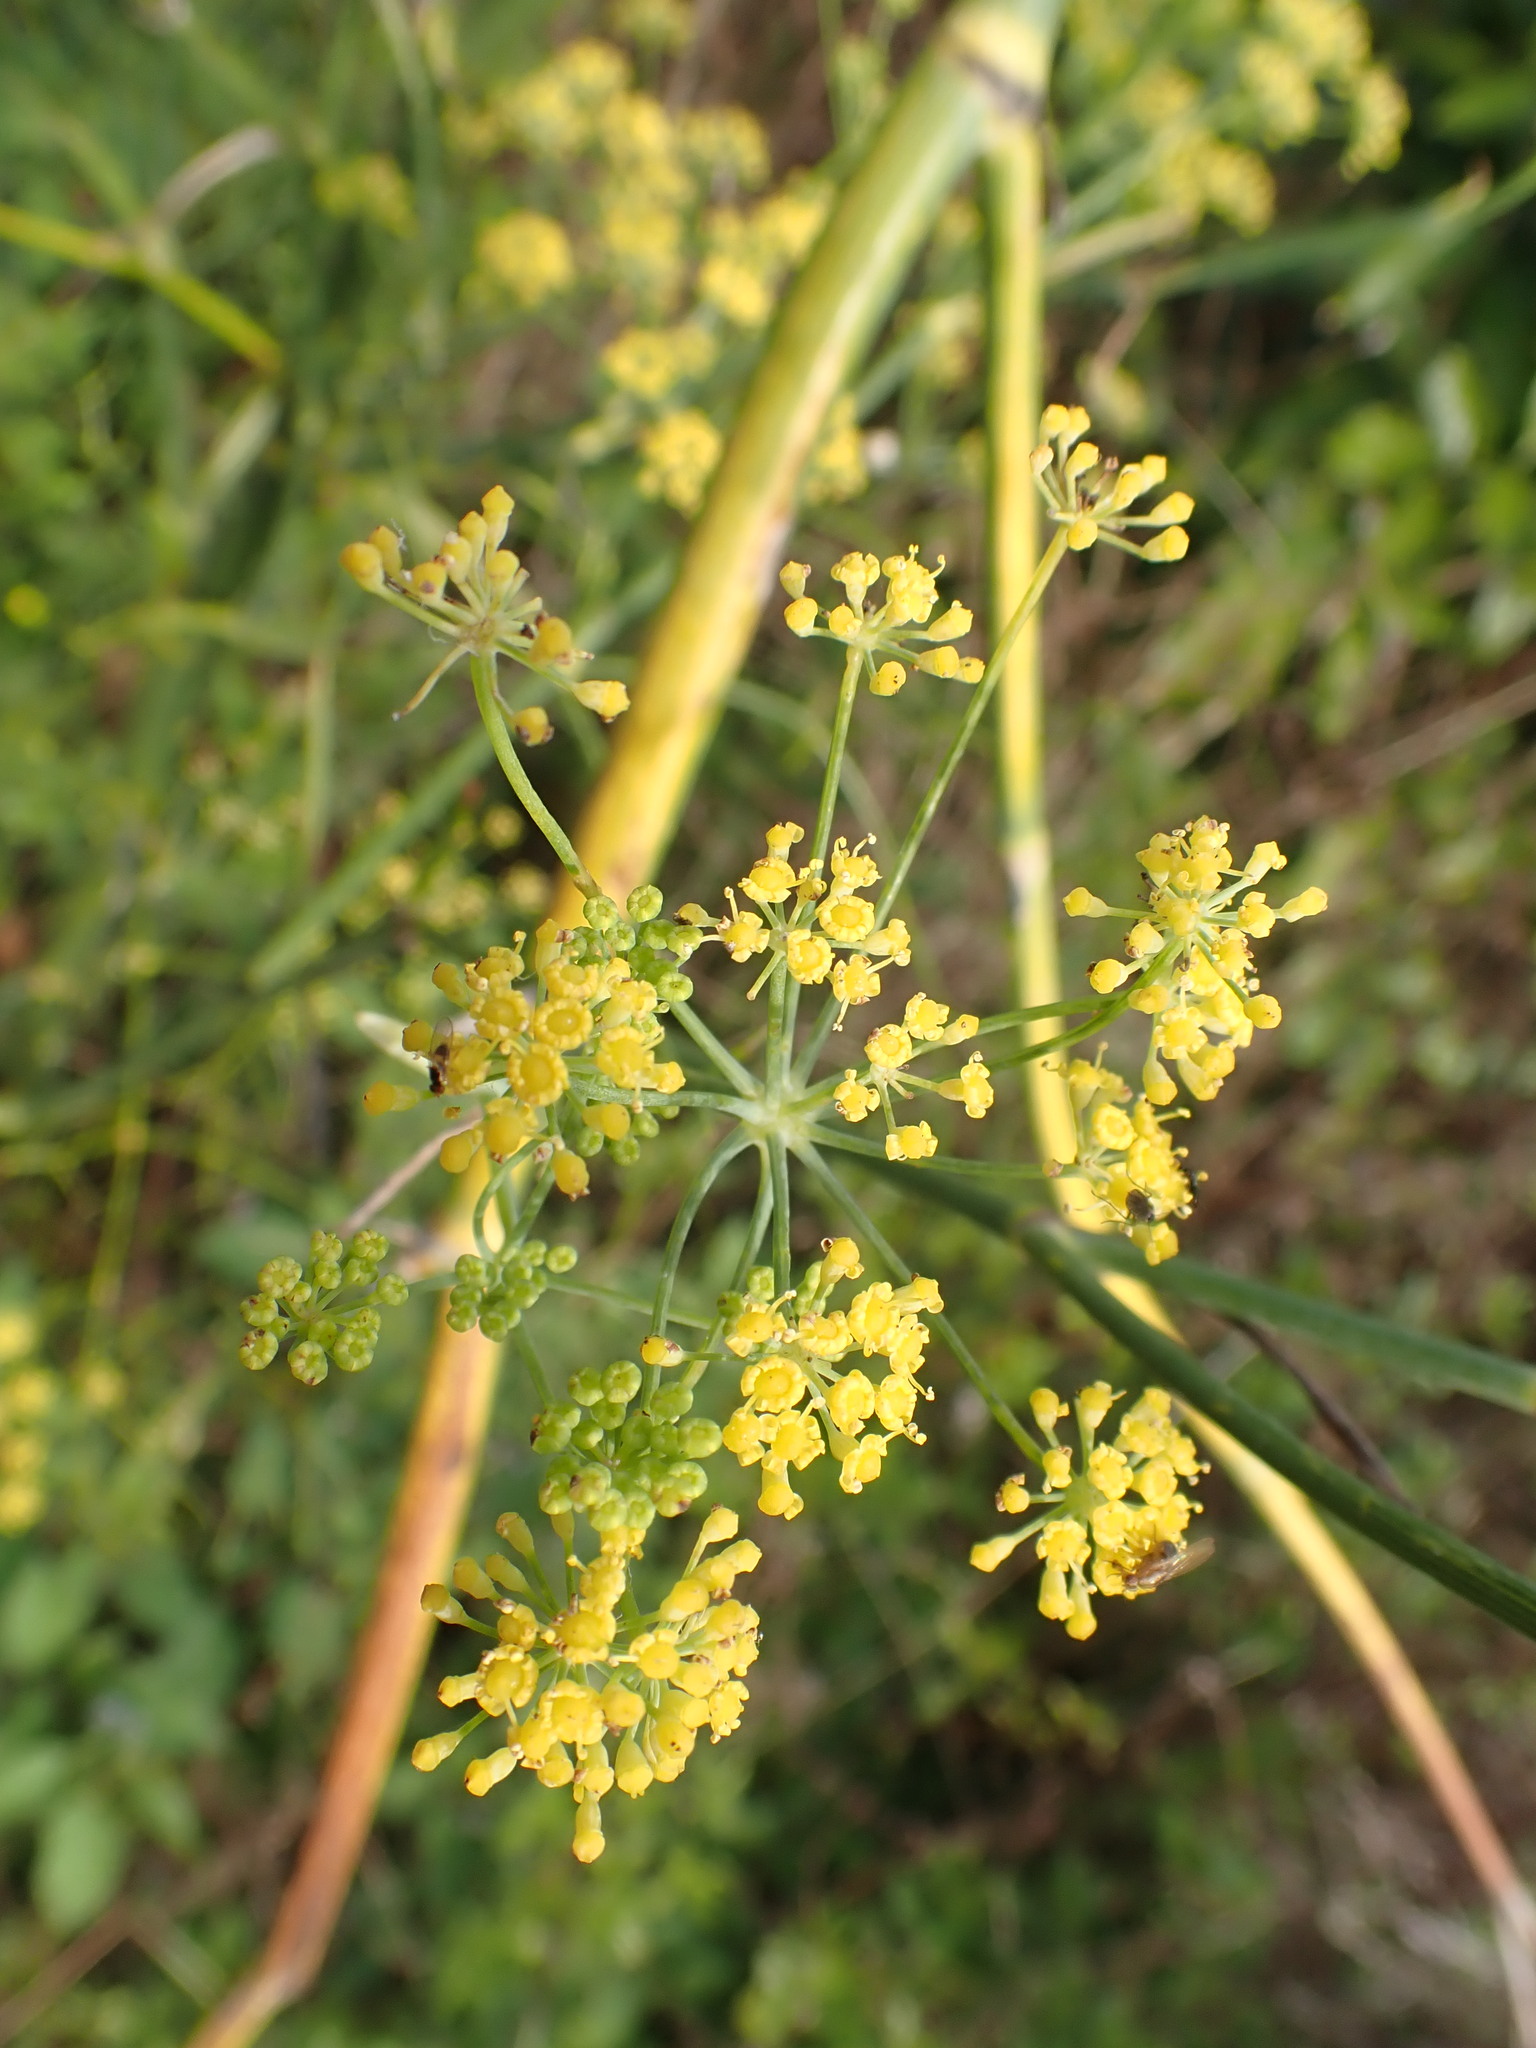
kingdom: Plantae
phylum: Tracheophyta
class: Magnoliopsida
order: Apiales
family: Apiaceae
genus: Foeniculum
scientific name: Foeniculum vulgare
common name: Fennel
